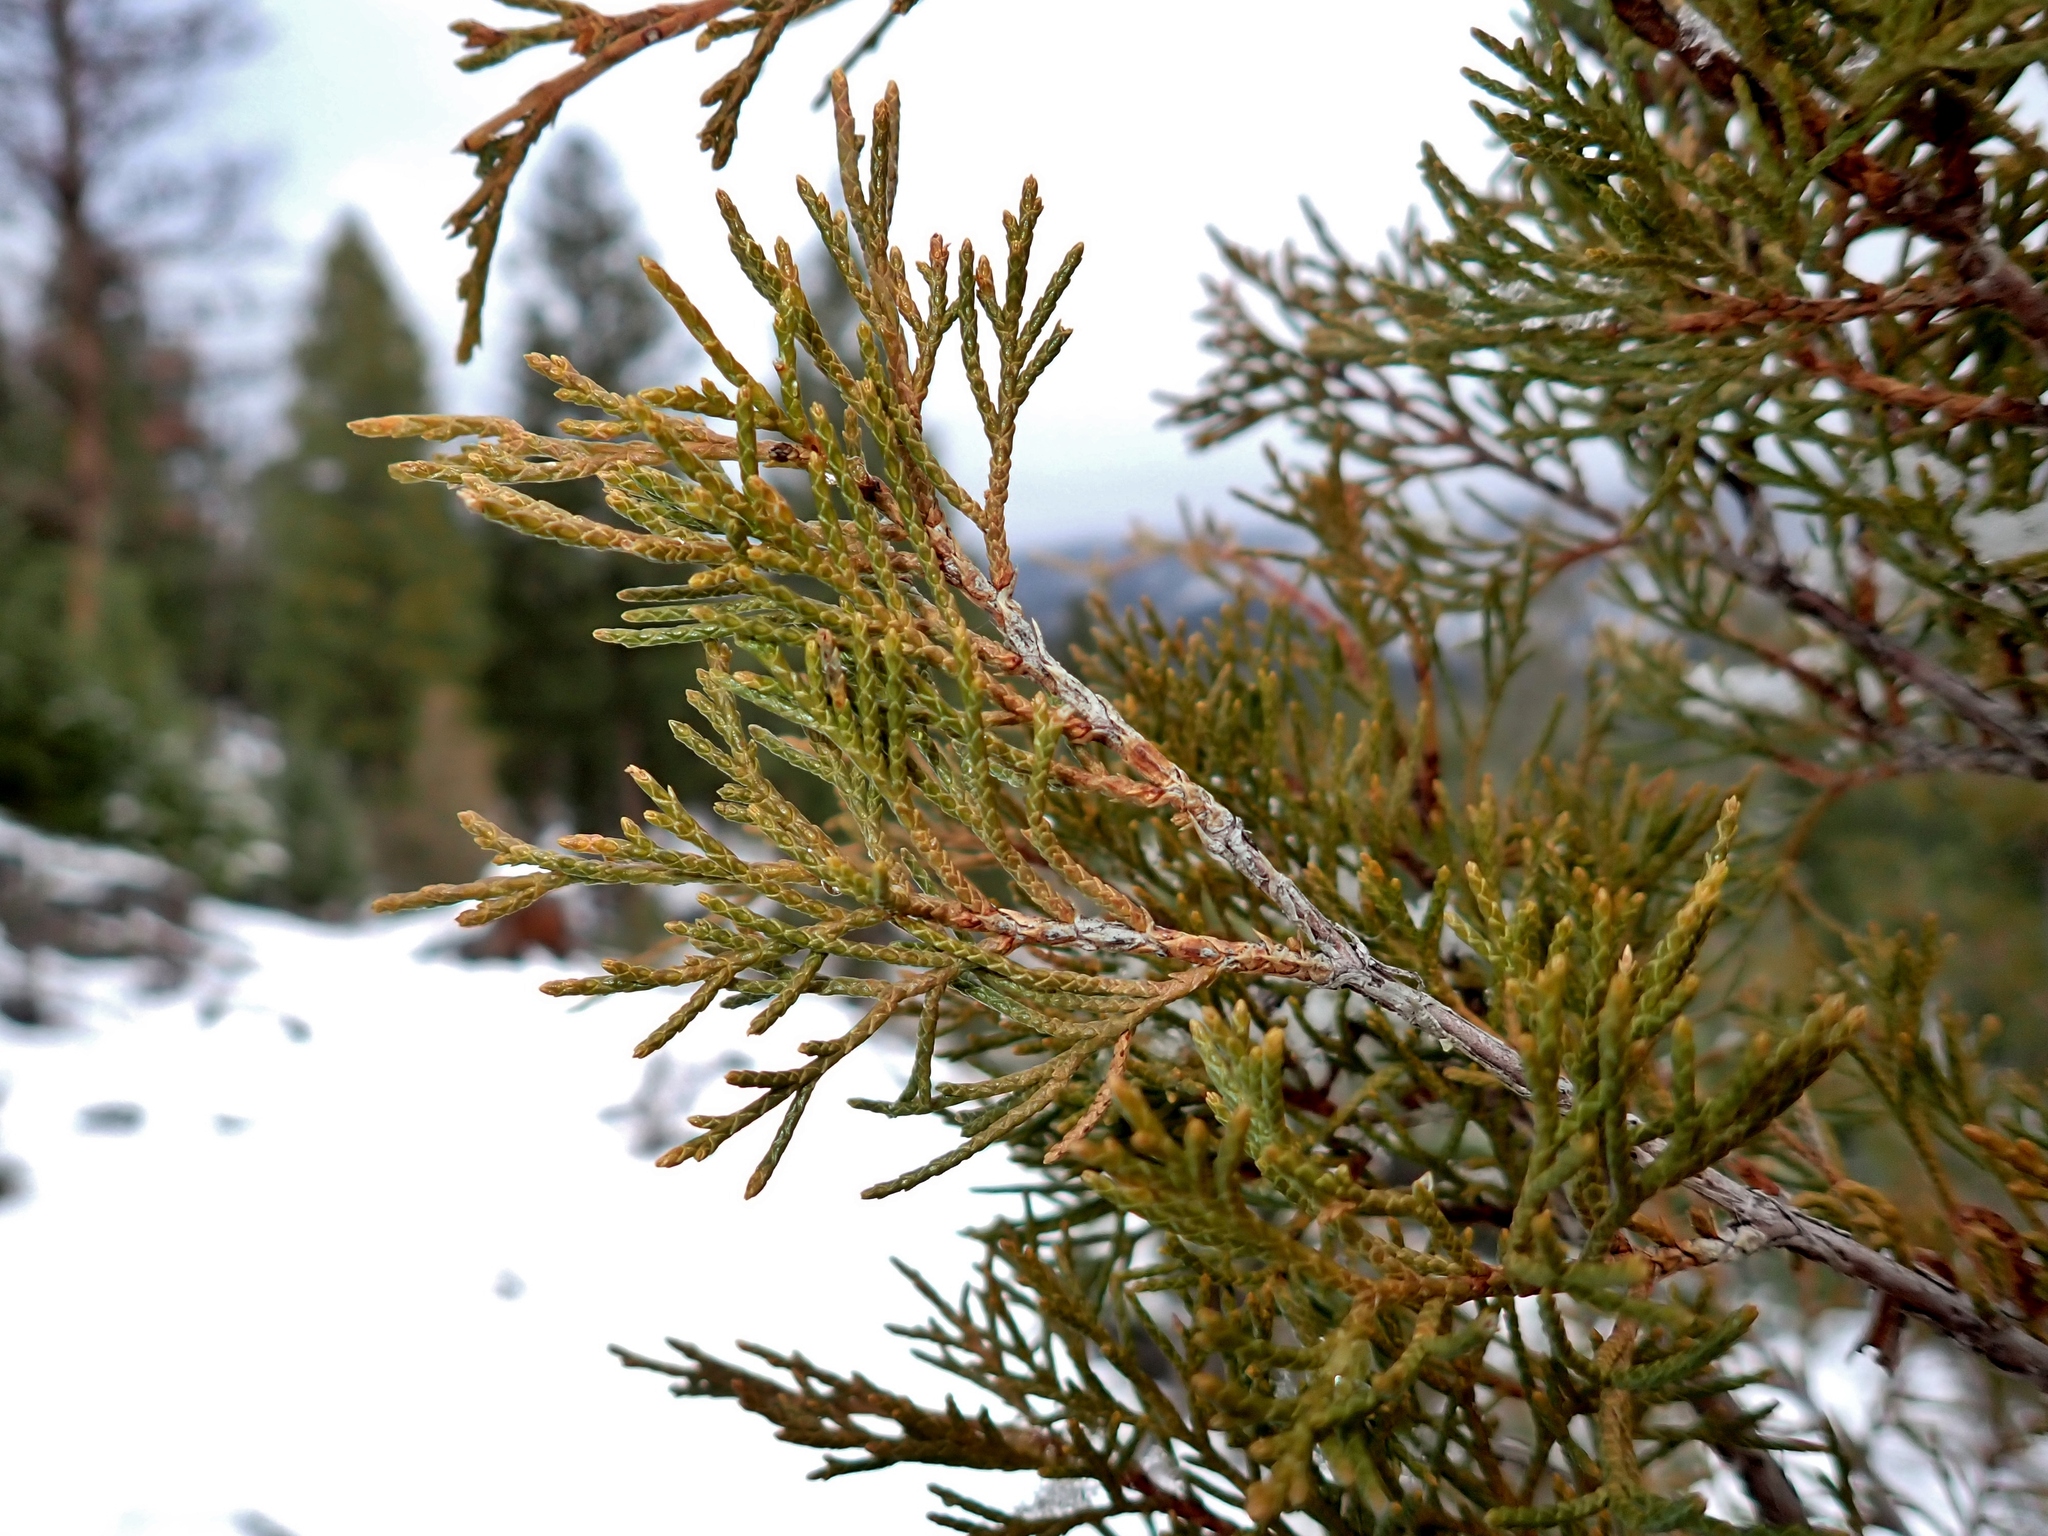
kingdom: Plantae
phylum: Tracheophyta
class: Pinopsida
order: Pinales
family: Cupressaceae
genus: Juniperus
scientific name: Juniperus scopulorum
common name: Rocky mountain juniper
